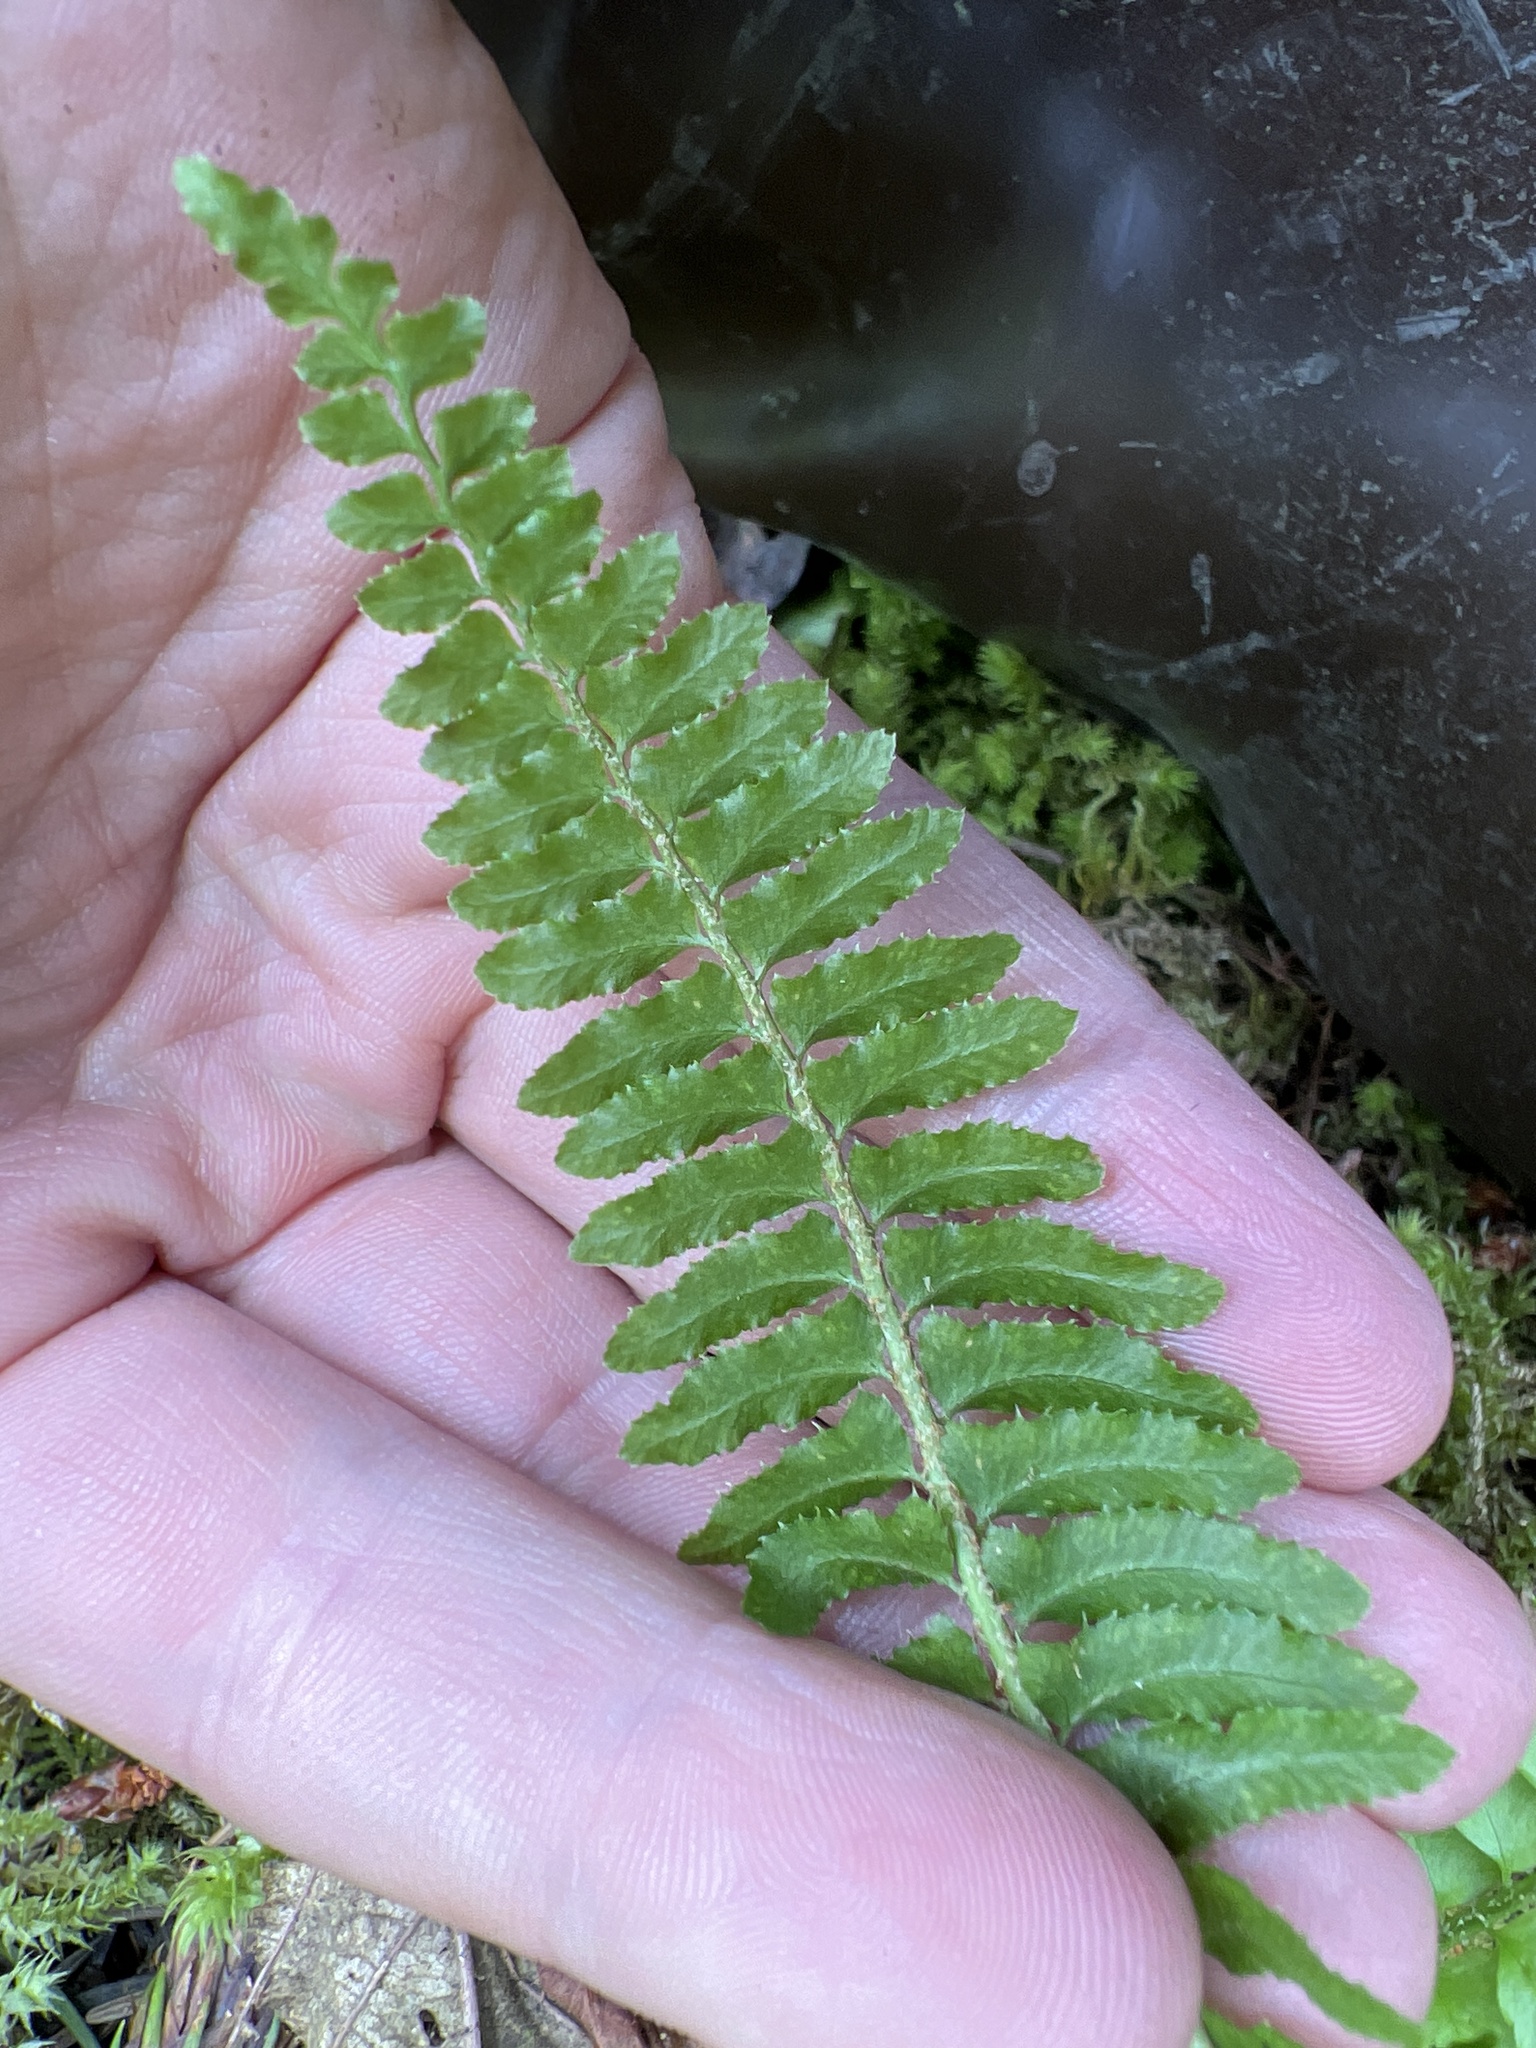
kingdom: Plantae
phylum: Tracheophyta
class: Polypodiopsida
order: Polypodiales
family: Dryopteridaceae
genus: Polystichum
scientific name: Polystichum munitum
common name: Western sword-fern
